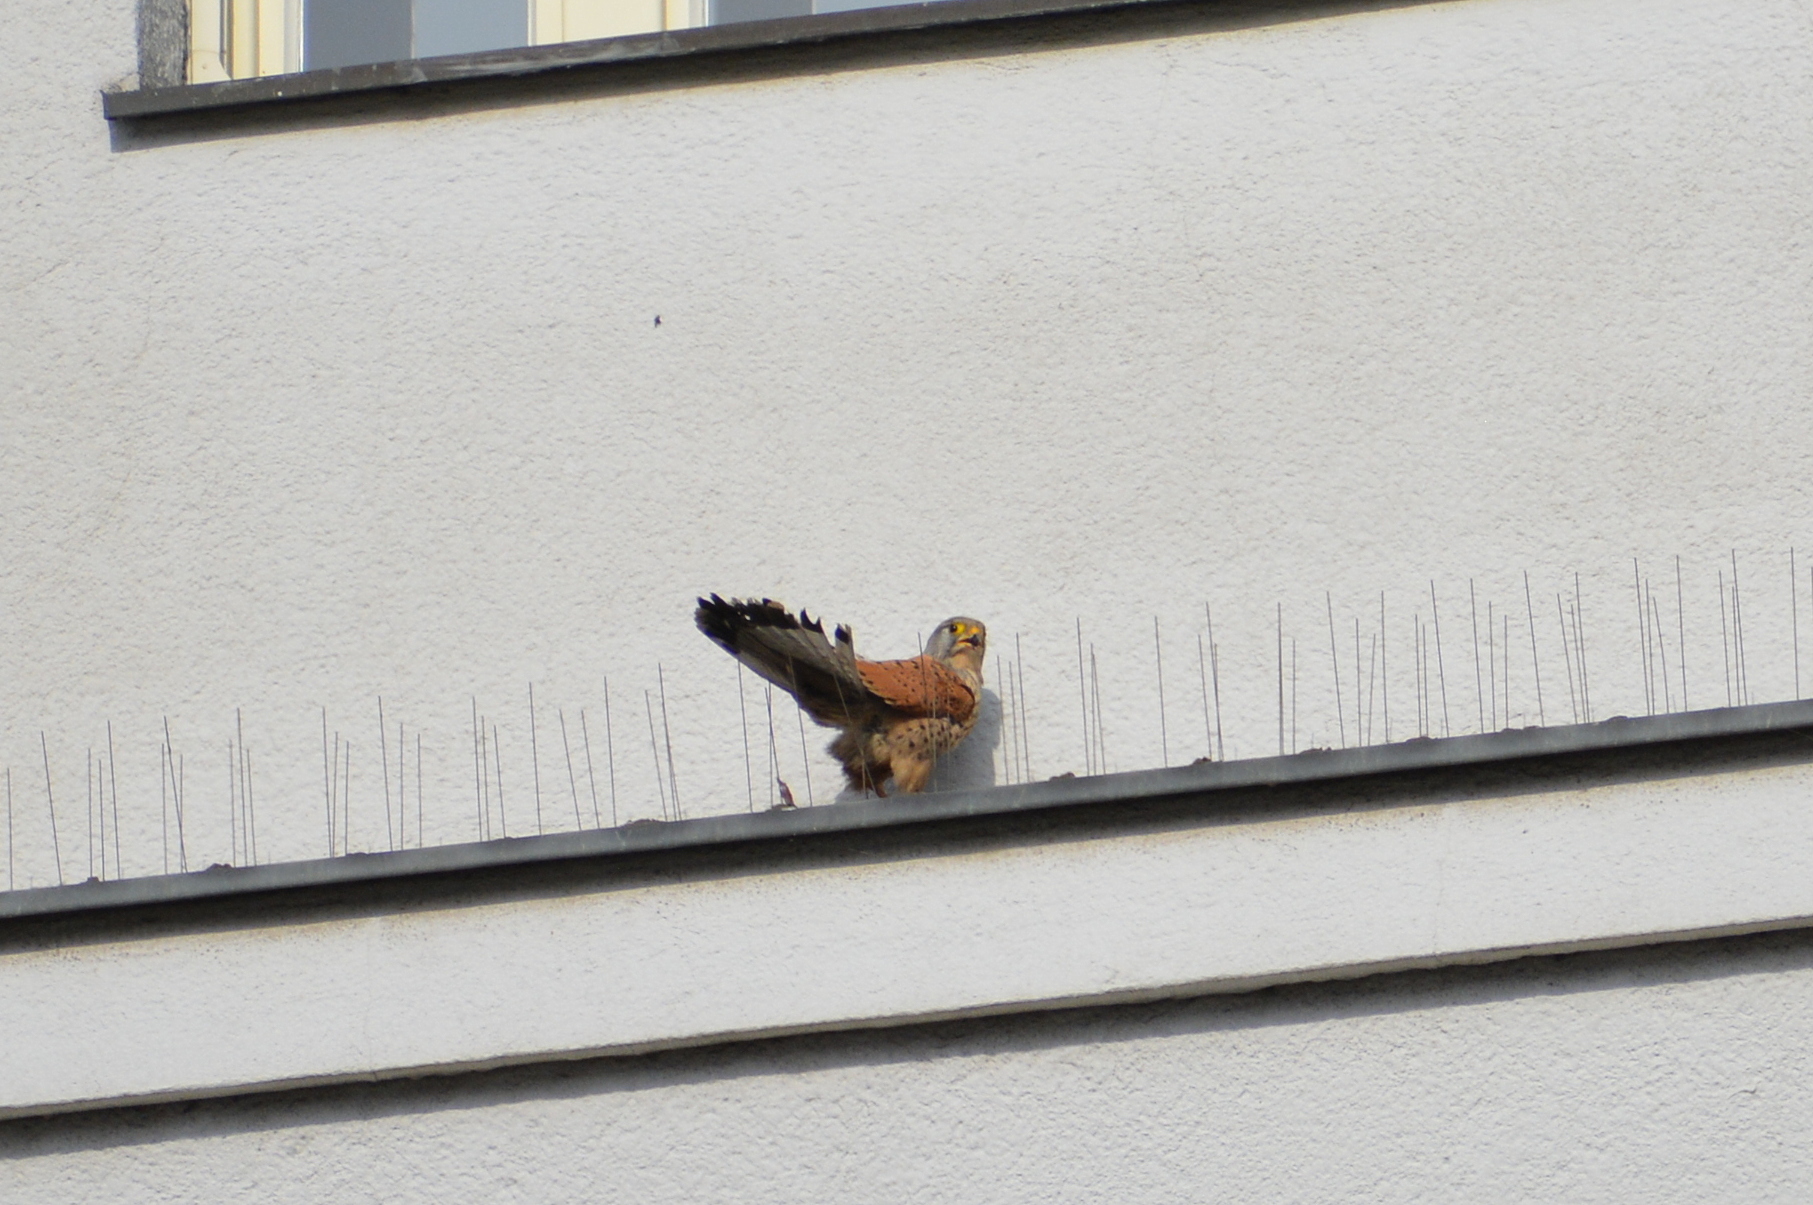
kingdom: Animalia
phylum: Chordata
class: Aves
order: Falconiformes
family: Falconidae
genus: Falco
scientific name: Falco tinnunculus
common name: Common kestrel
